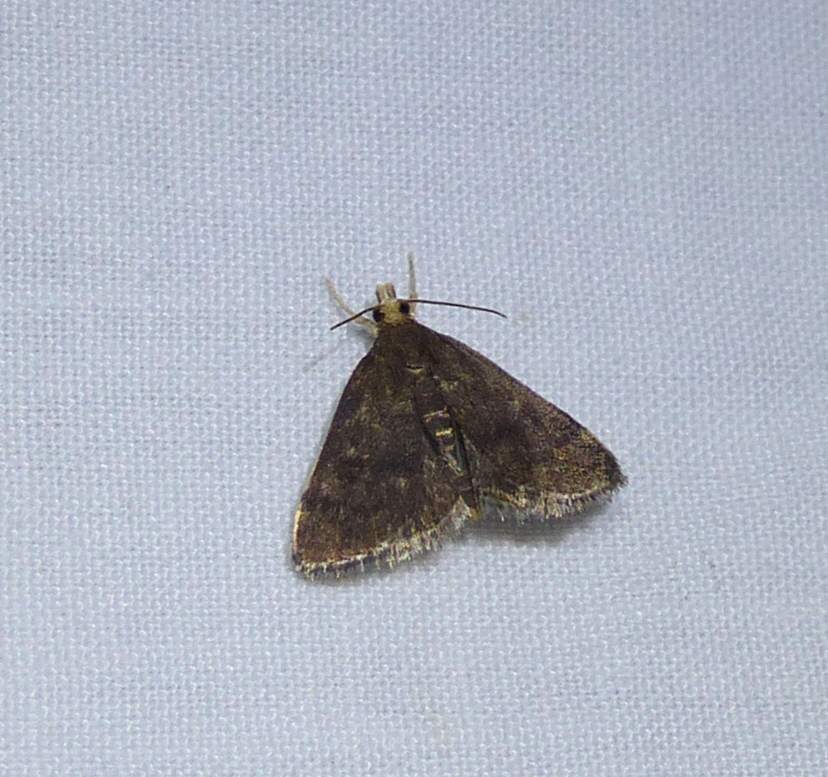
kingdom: Animalia
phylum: Arthropoda
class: Insecta
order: Lepidoptera
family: Crambidae
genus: Pyrausta
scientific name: Pyrausta merrickalis
